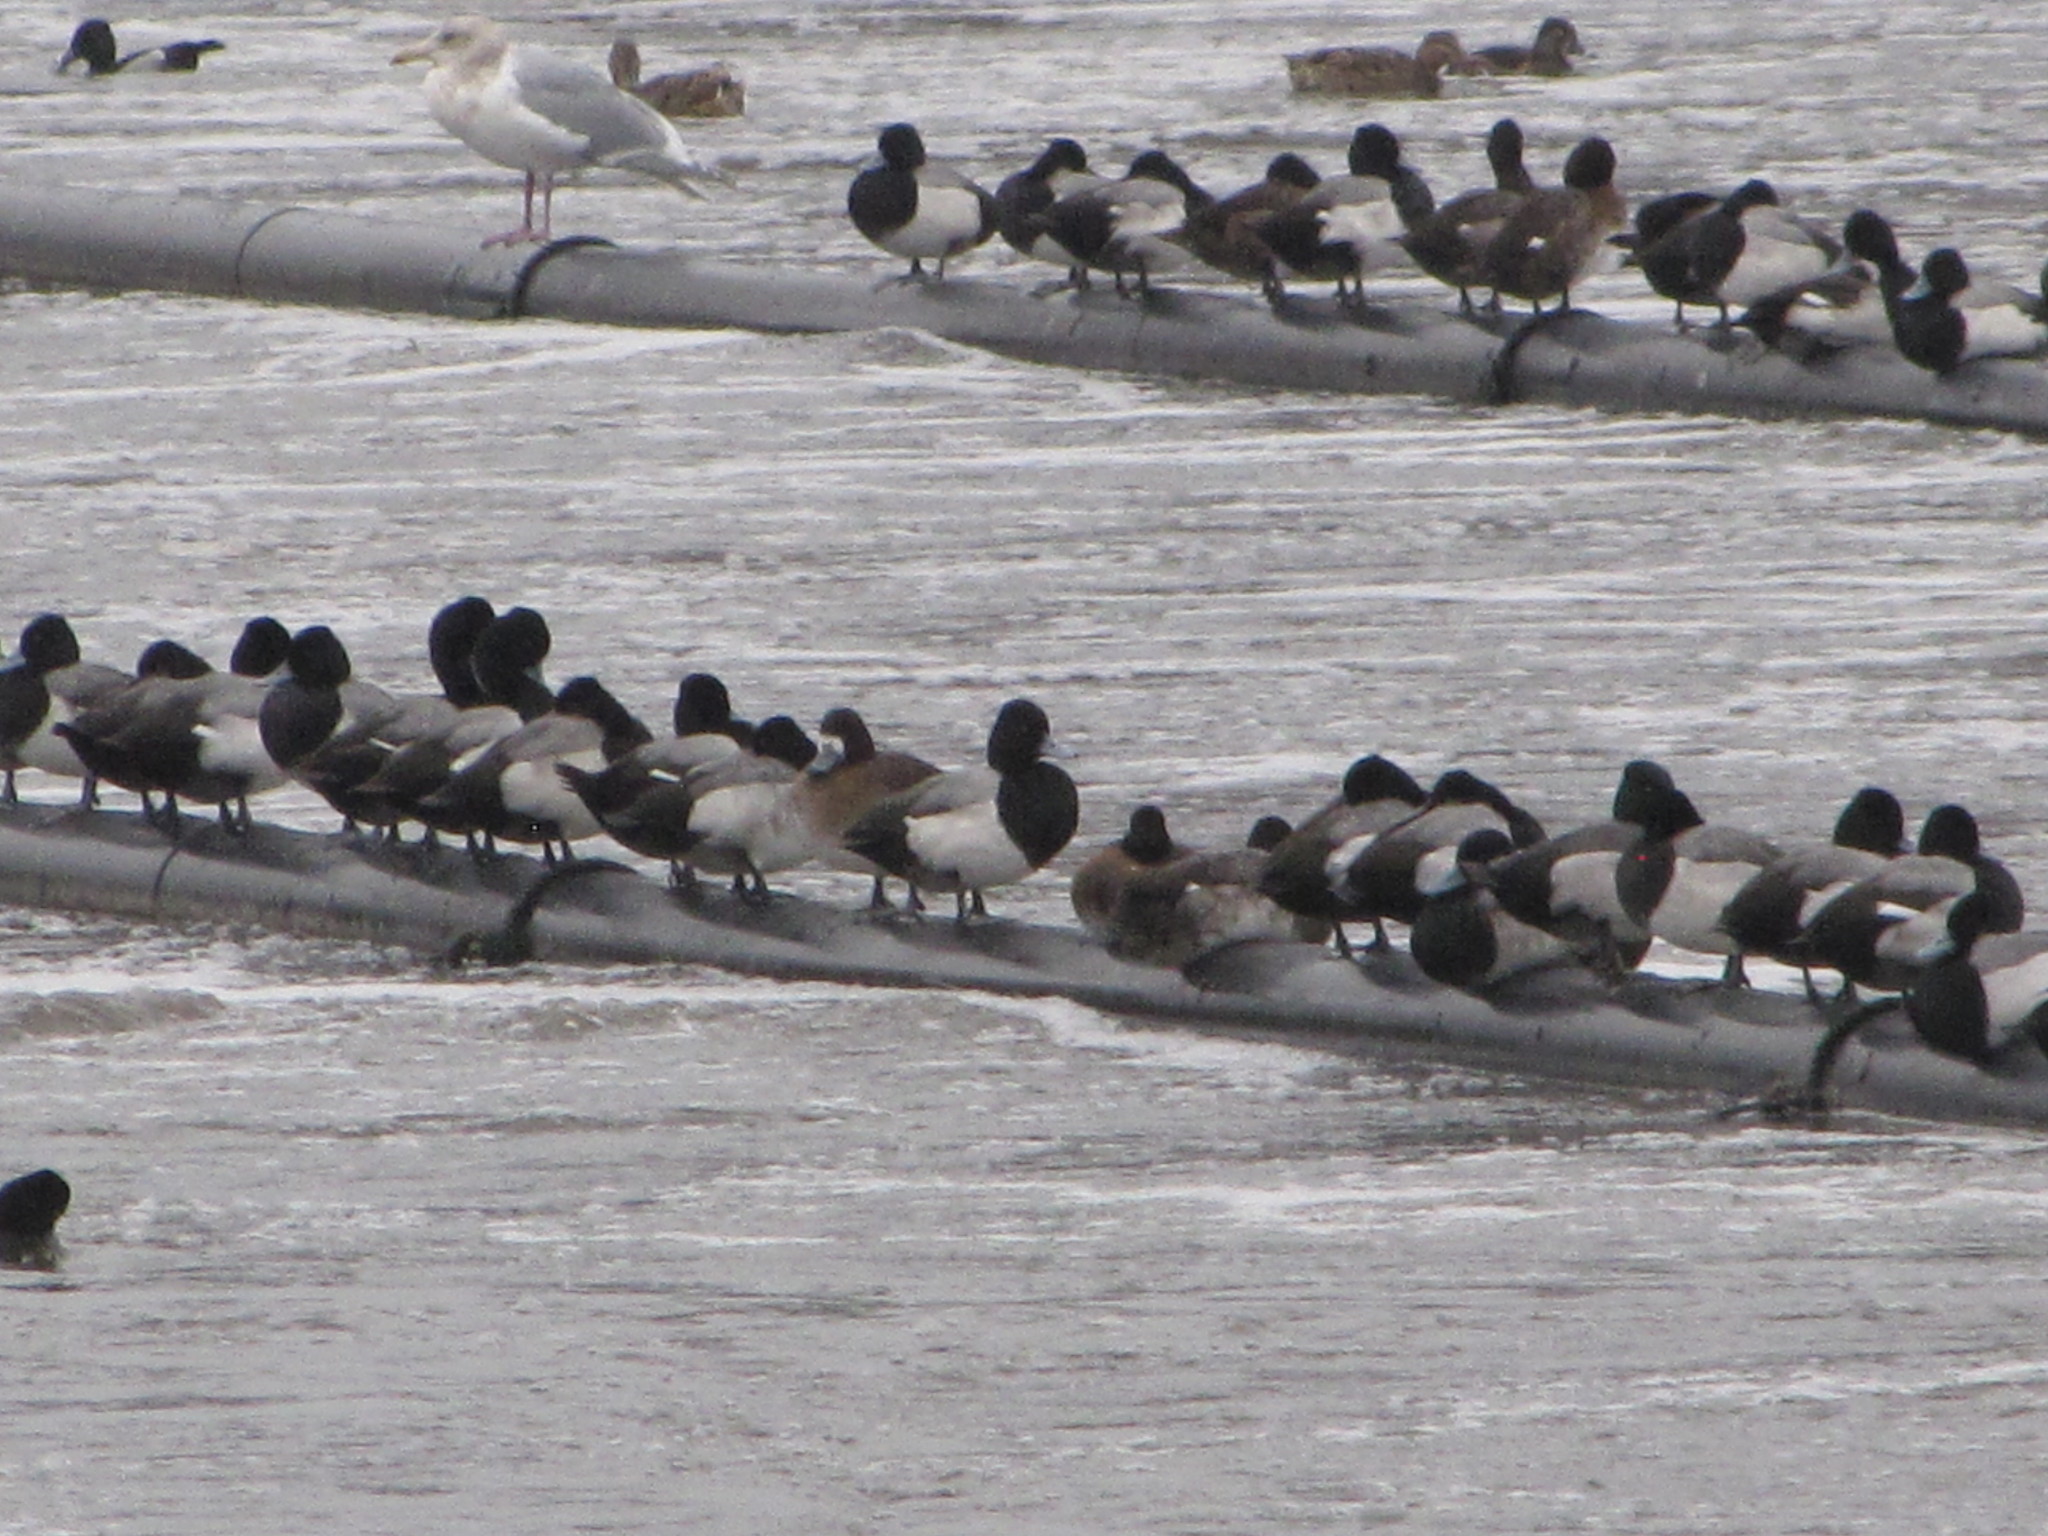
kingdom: Animalia
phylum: Chordata
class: Aves
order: Anseriformes
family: Anatidae
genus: Aythya
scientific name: Aythya affinis
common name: Lesser scaup
